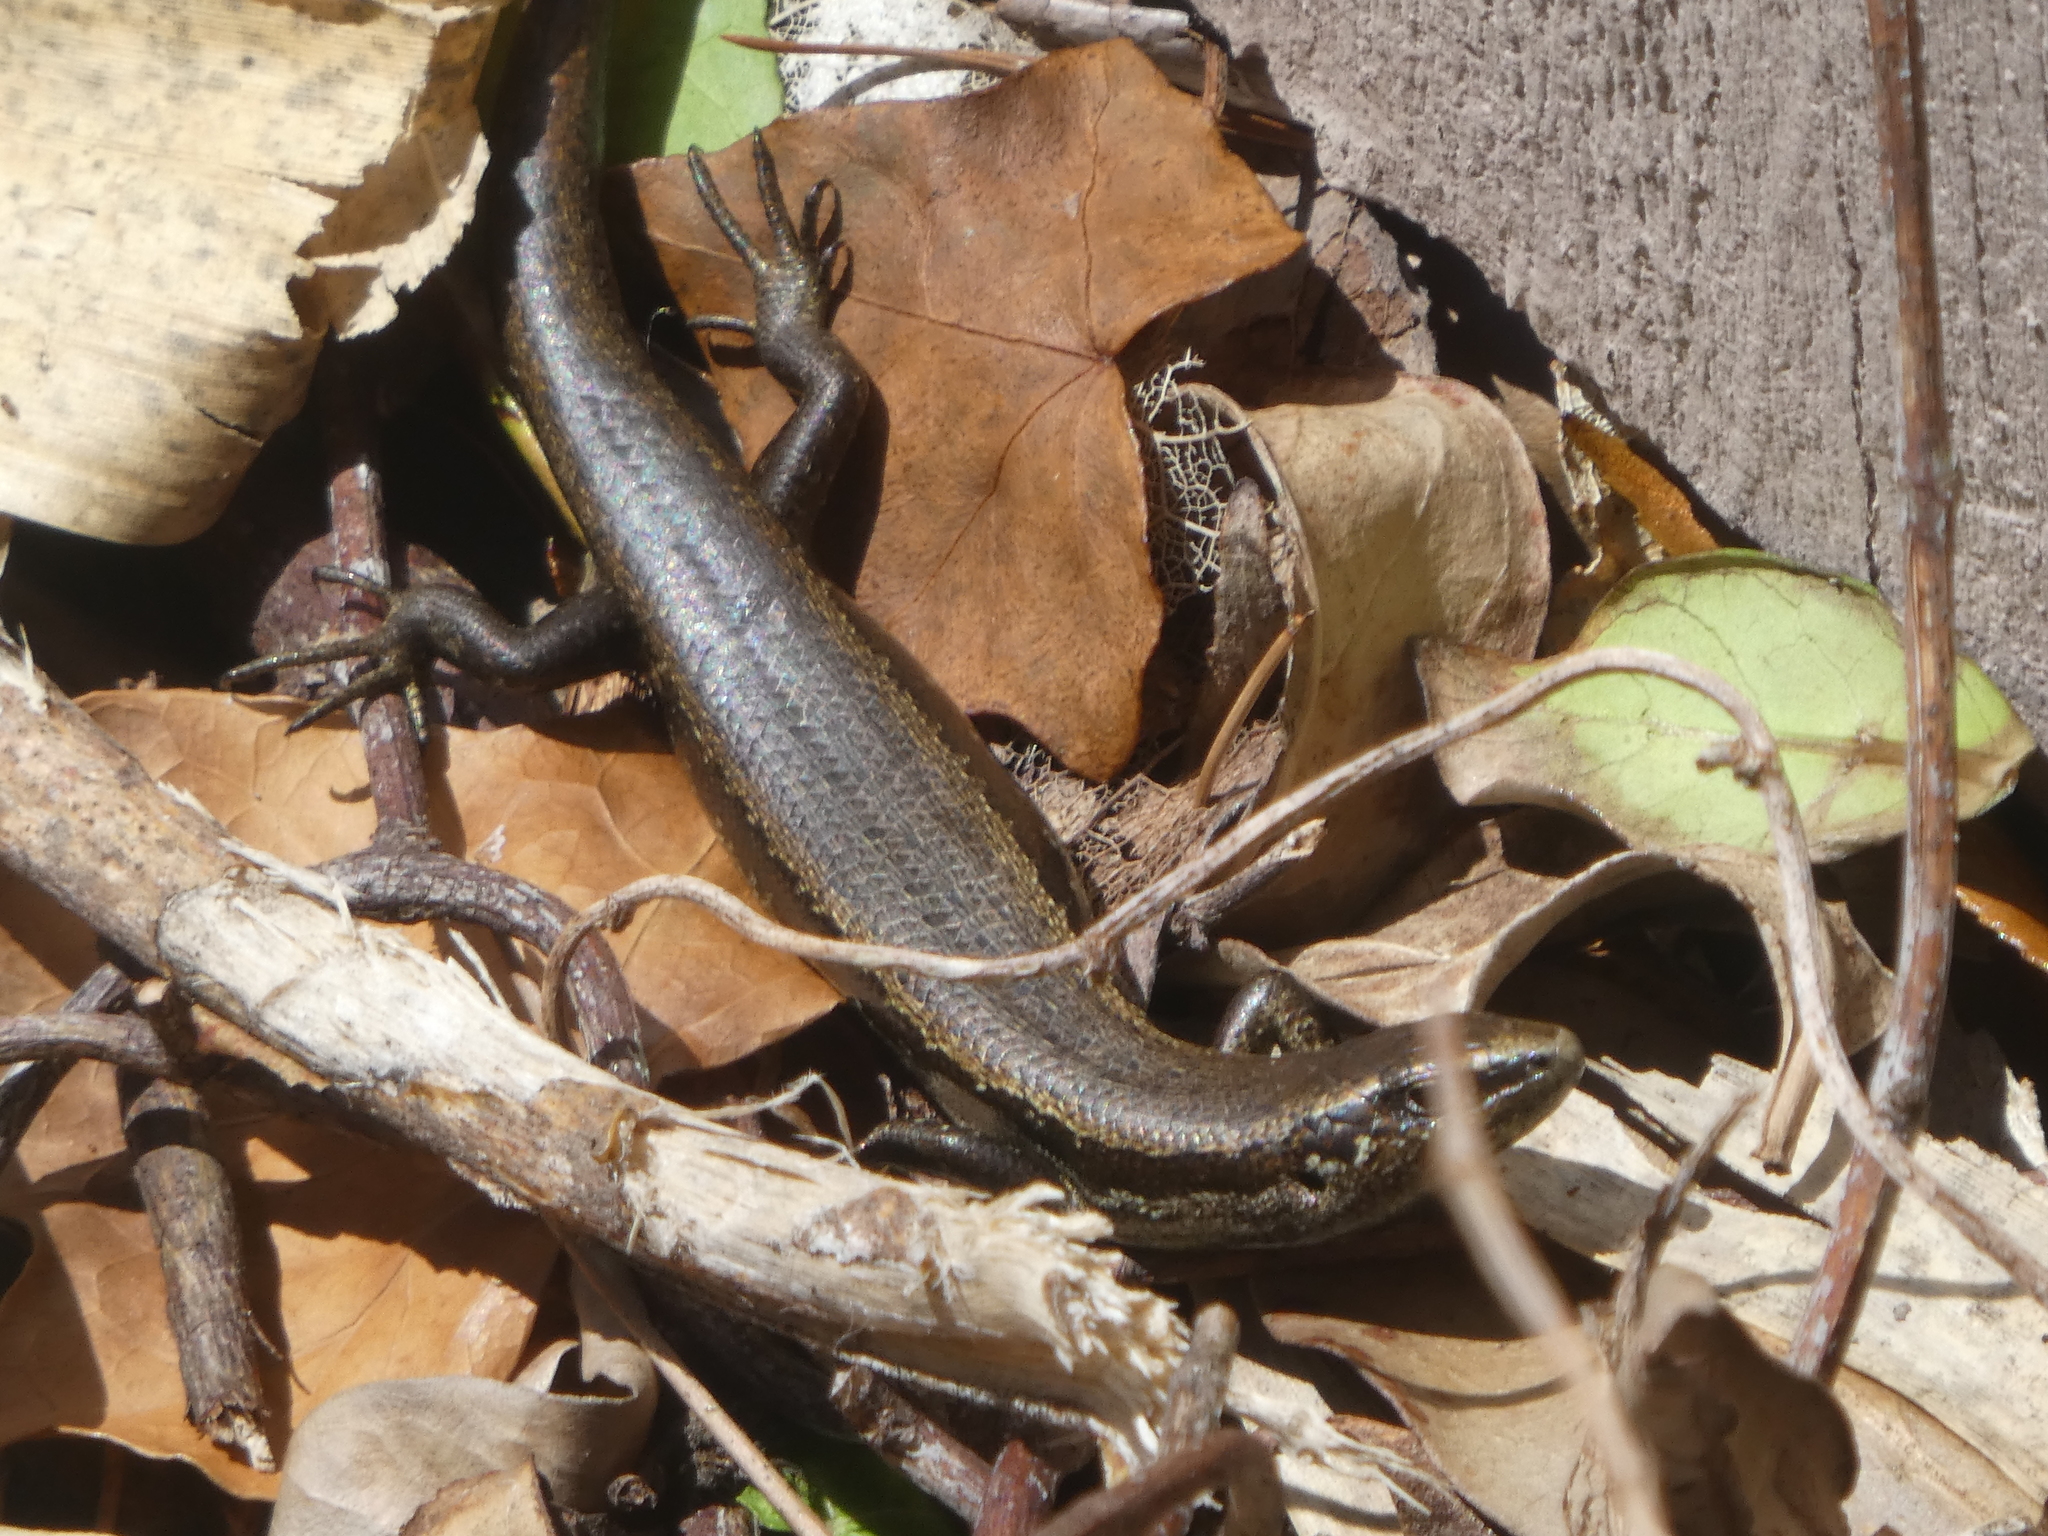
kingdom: Animalia
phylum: Chordata
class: Squamata
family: Scincidae
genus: Oligosoma
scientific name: Oligosoma polychroma
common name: Common new zealand skink
